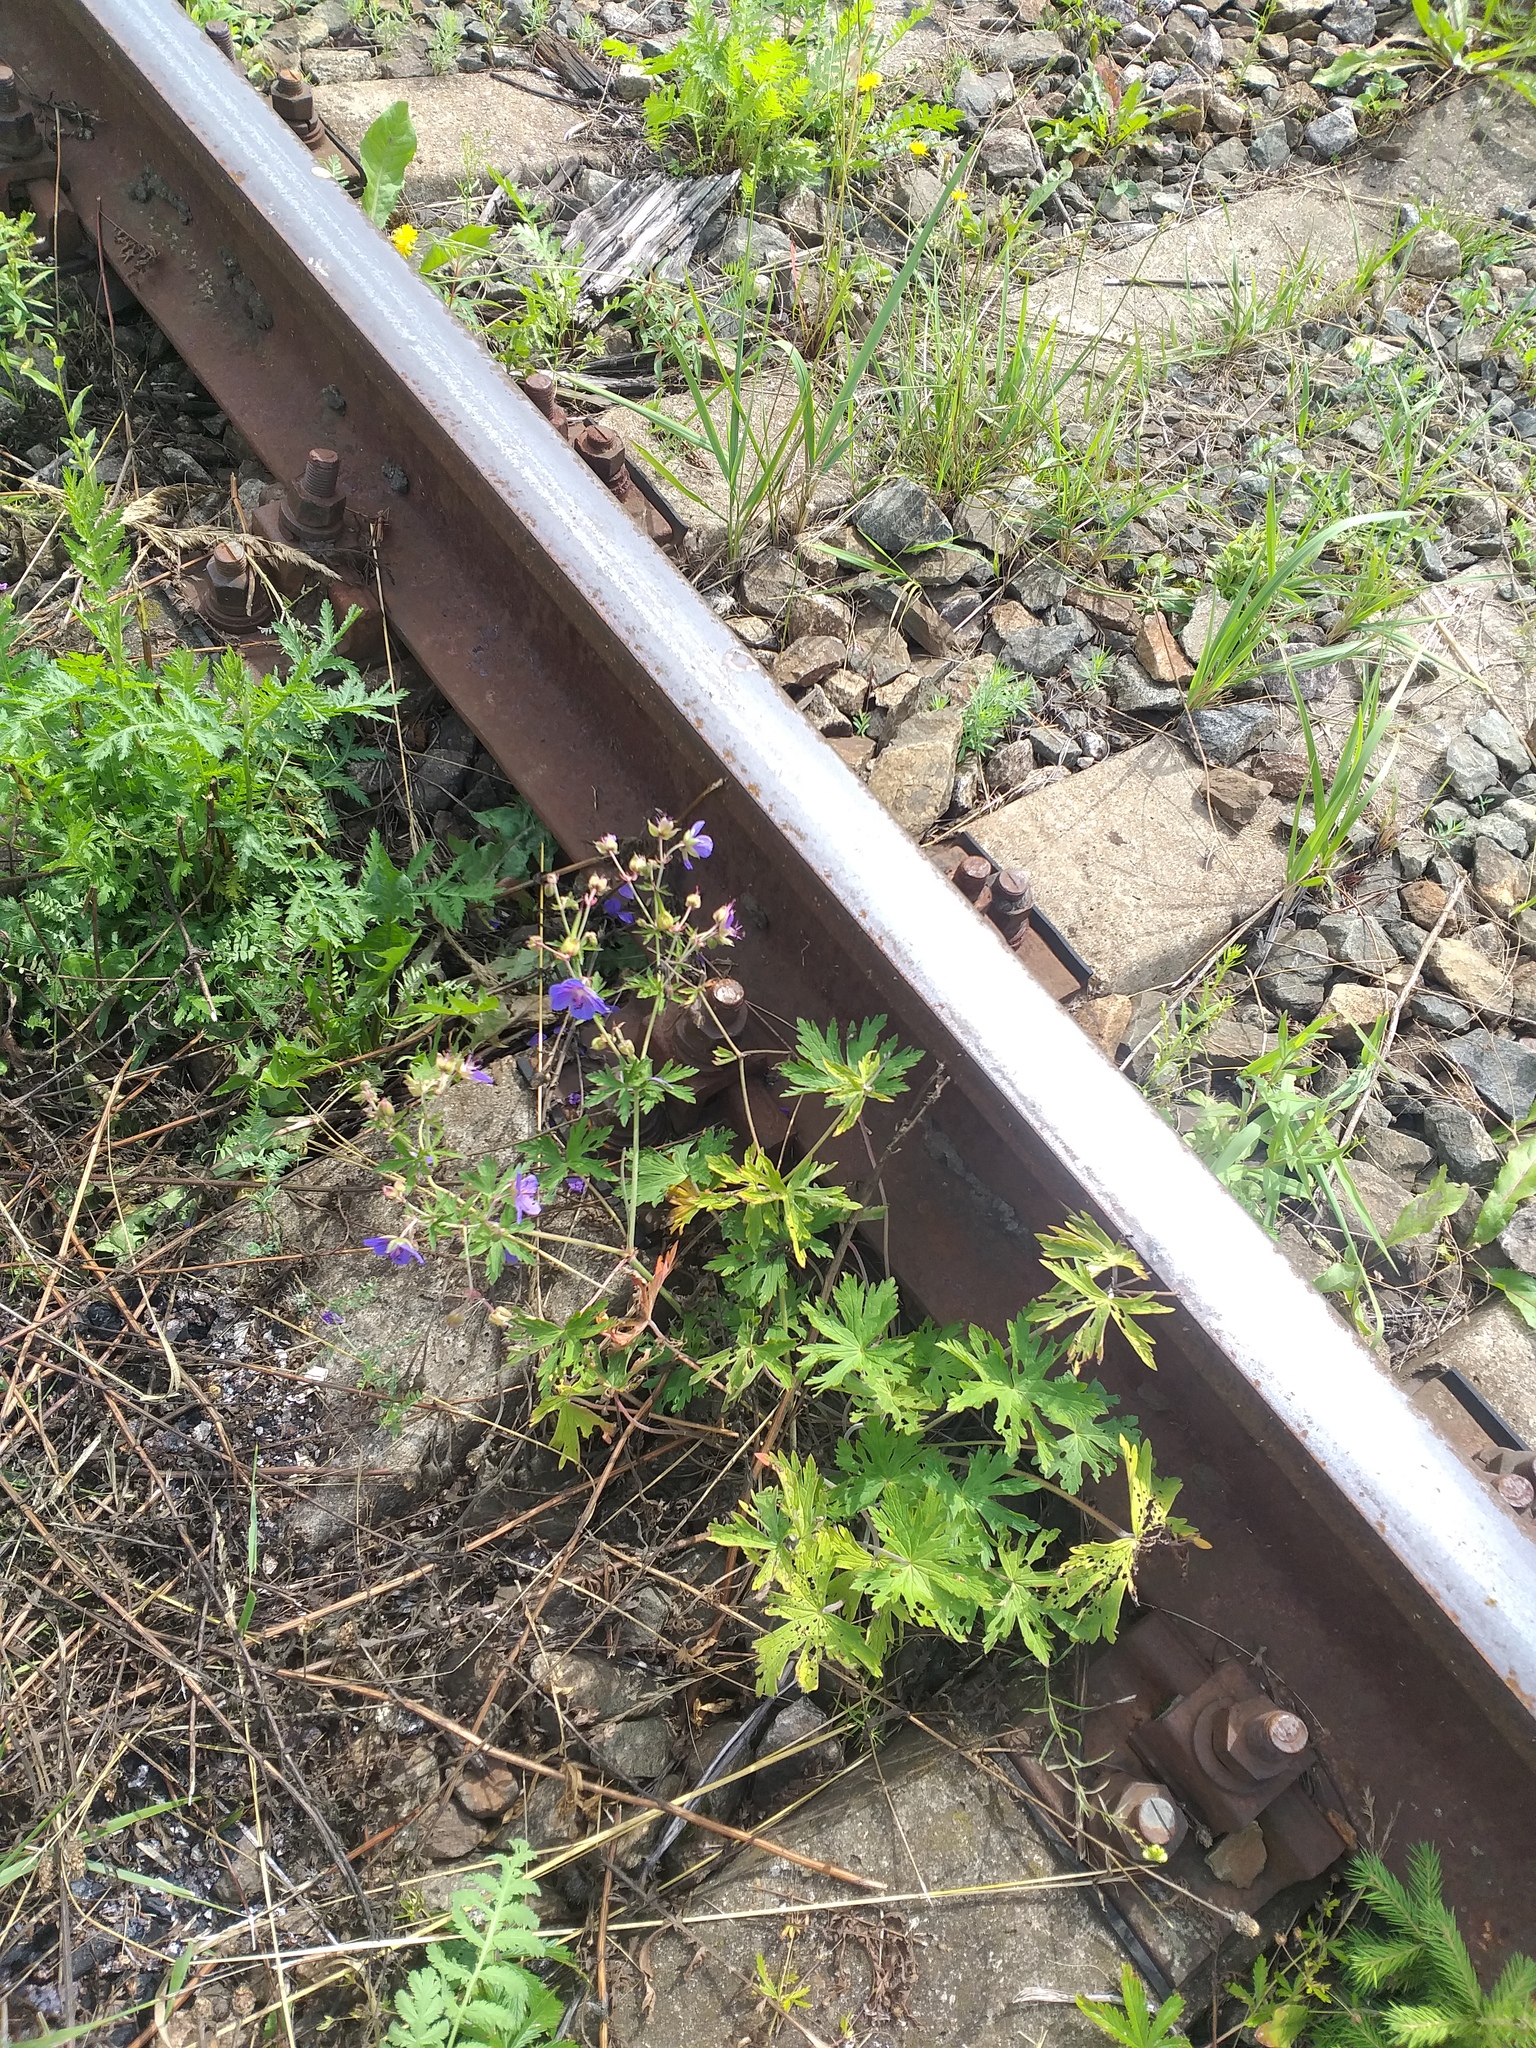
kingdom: Plantae
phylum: Tracheophyta
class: Magnoliopsida
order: Geraniales
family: Geraniaceae
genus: Geranium
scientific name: Geranium pratense
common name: Meadow crane's-bill
